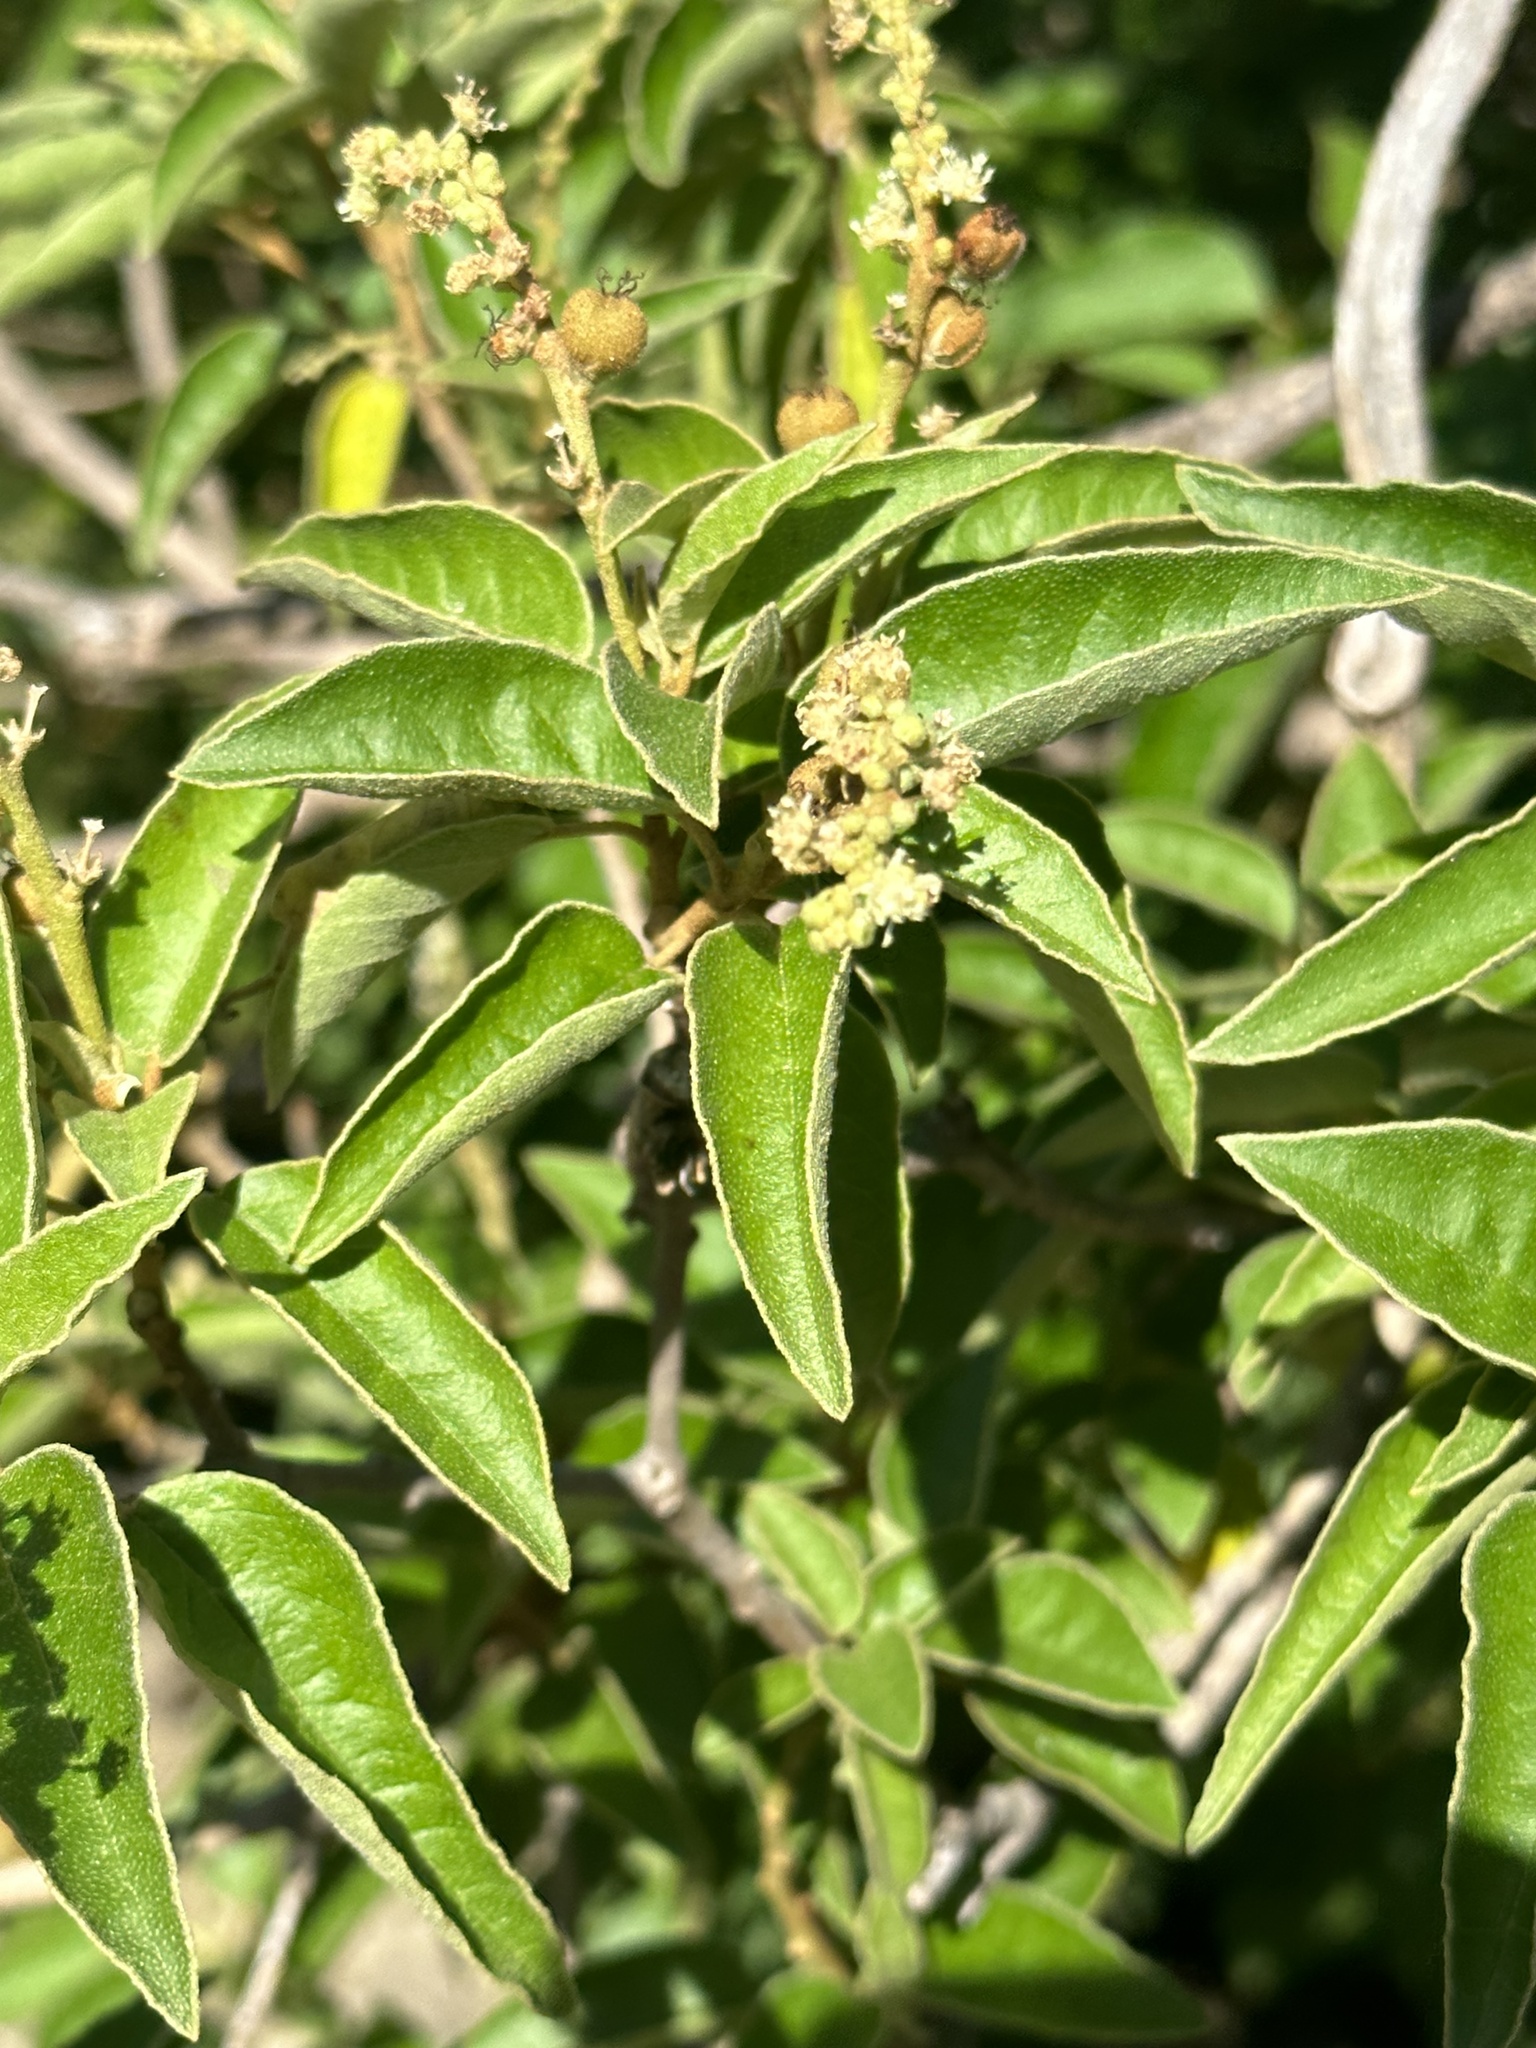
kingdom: Plantae
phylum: Tracheophyta
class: Magnoliopsida
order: Malpighiales
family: Euphorbiaceae
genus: Croton
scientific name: Croton flavens
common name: Yellow balsam
